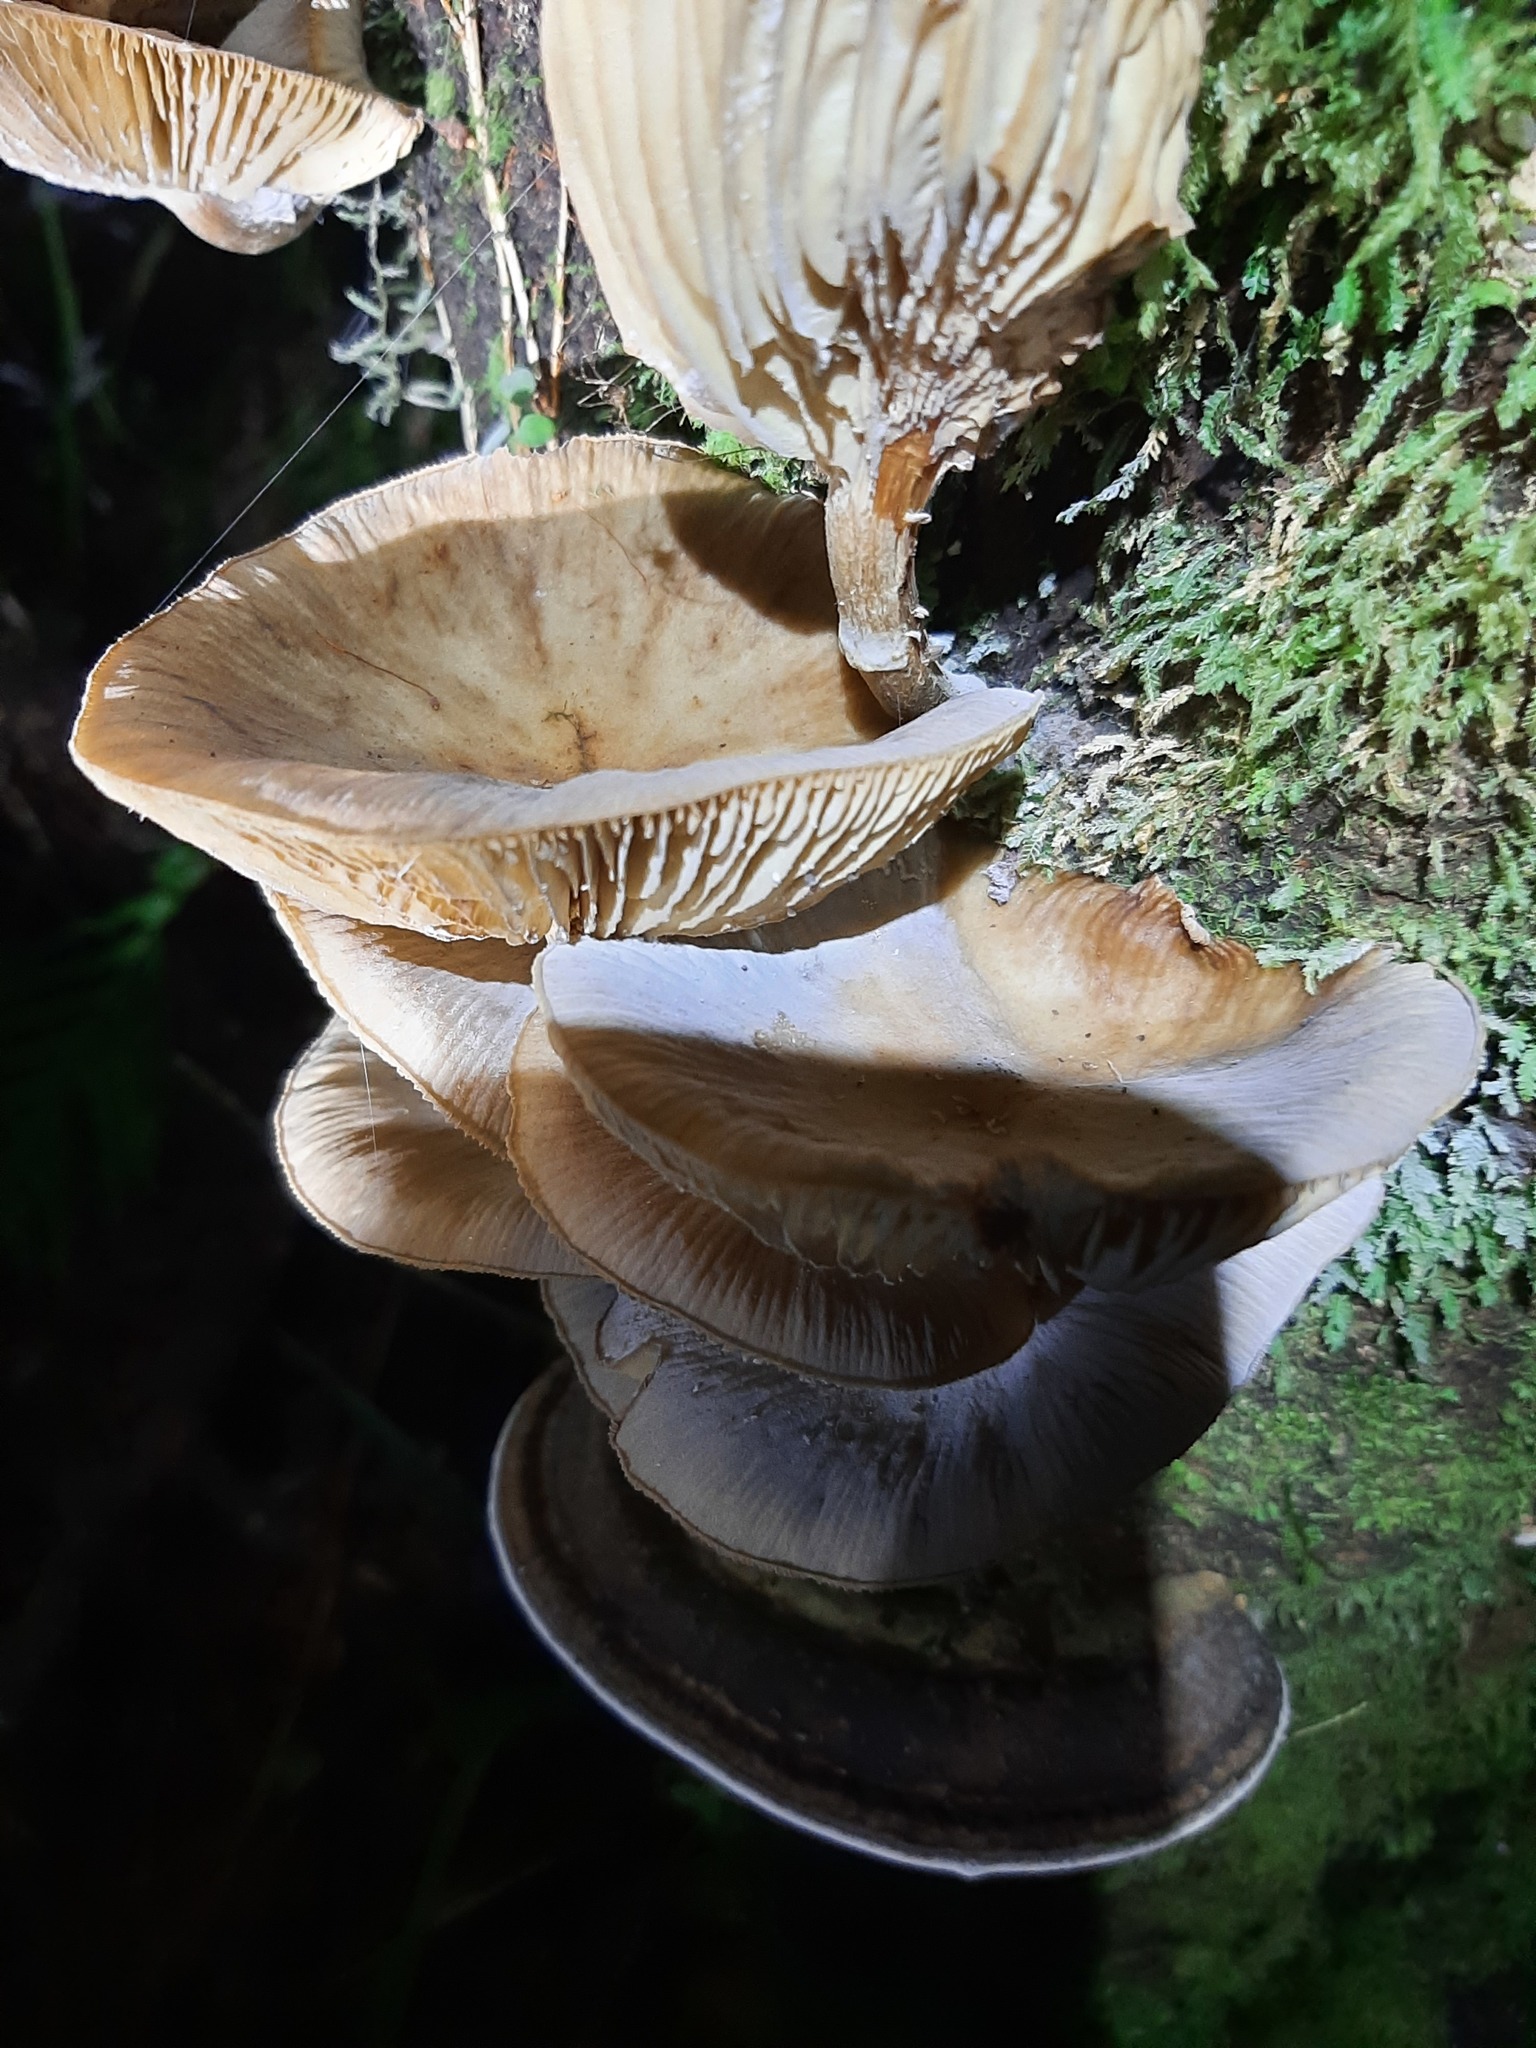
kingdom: Fungi
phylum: Basidiomycota
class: Agaricomycetes
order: Agaricales
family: Physalacriaceae
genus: Armillaria
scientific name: Armillaria novae-zelandiae
